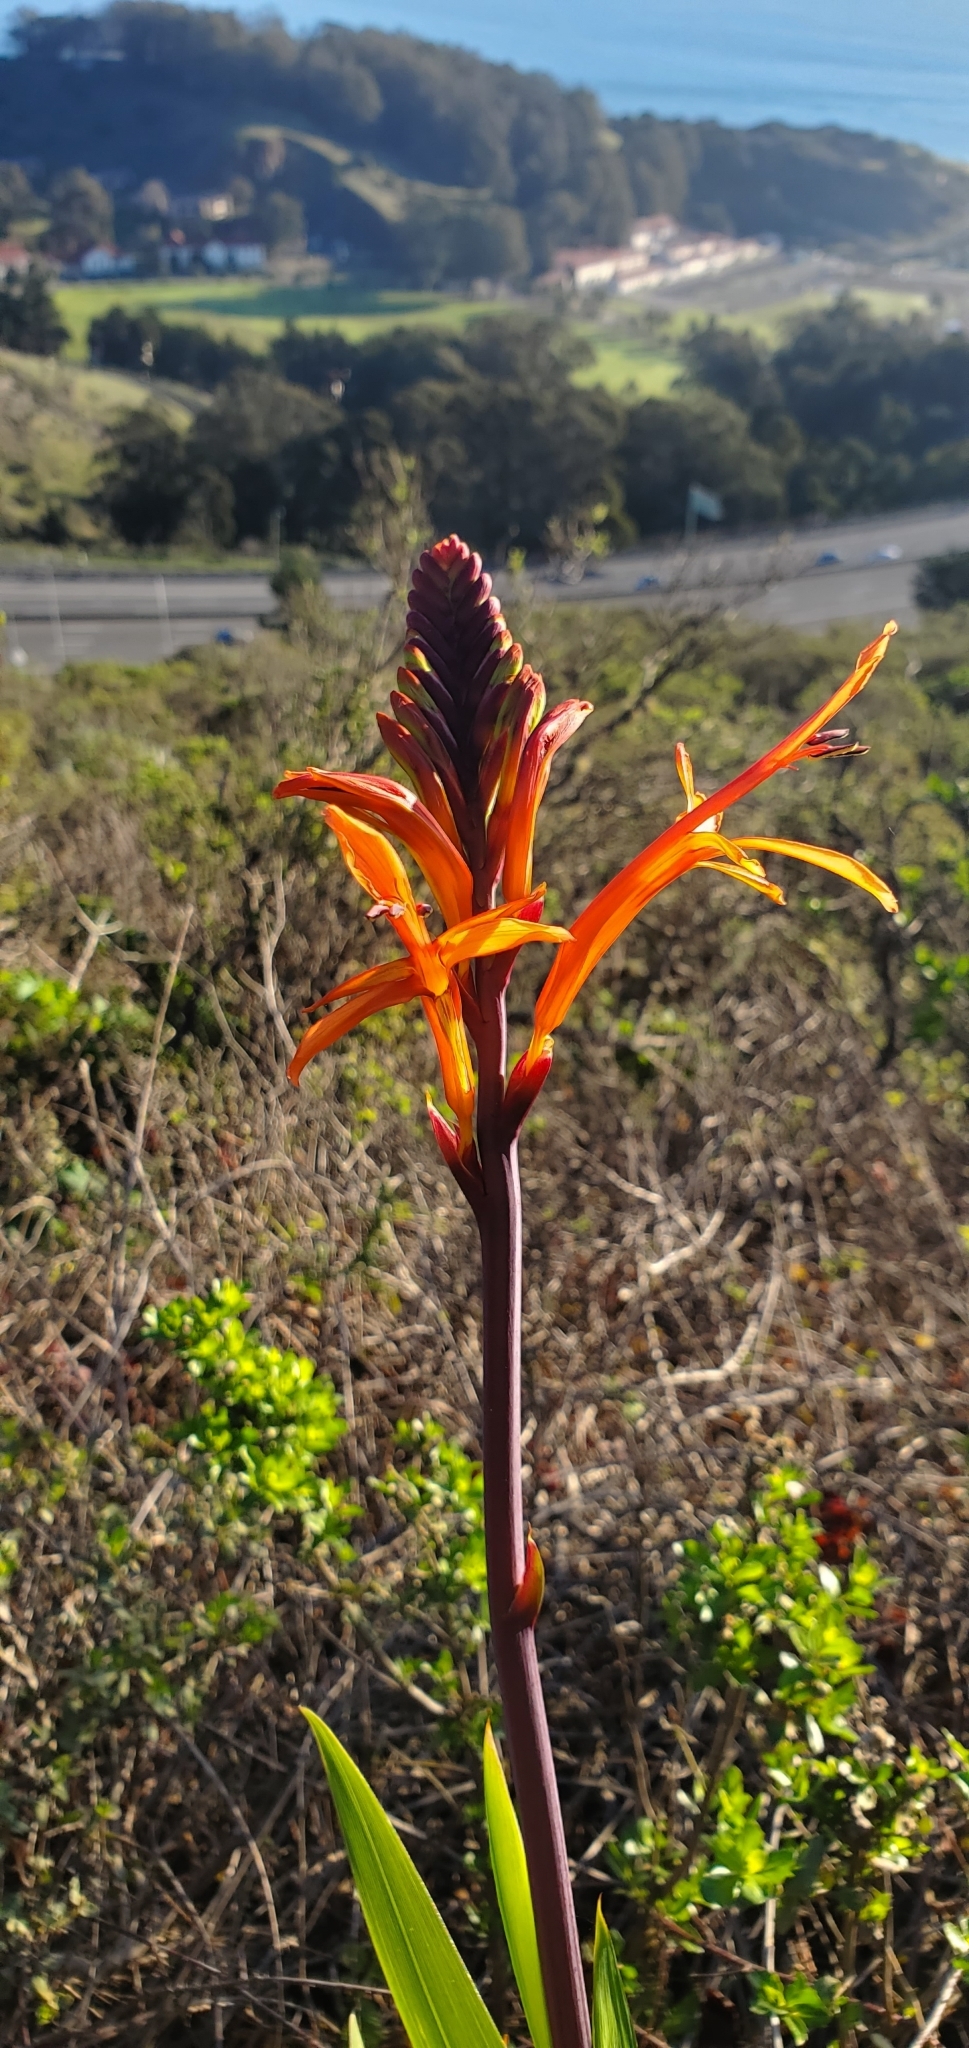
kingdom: Plantae
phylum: Tracheophyta
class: Liliopsida
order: Asparagales
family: Iridaceae
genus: Chasmanthe
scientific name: Chasmanthe floribunda
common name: African cornflag
